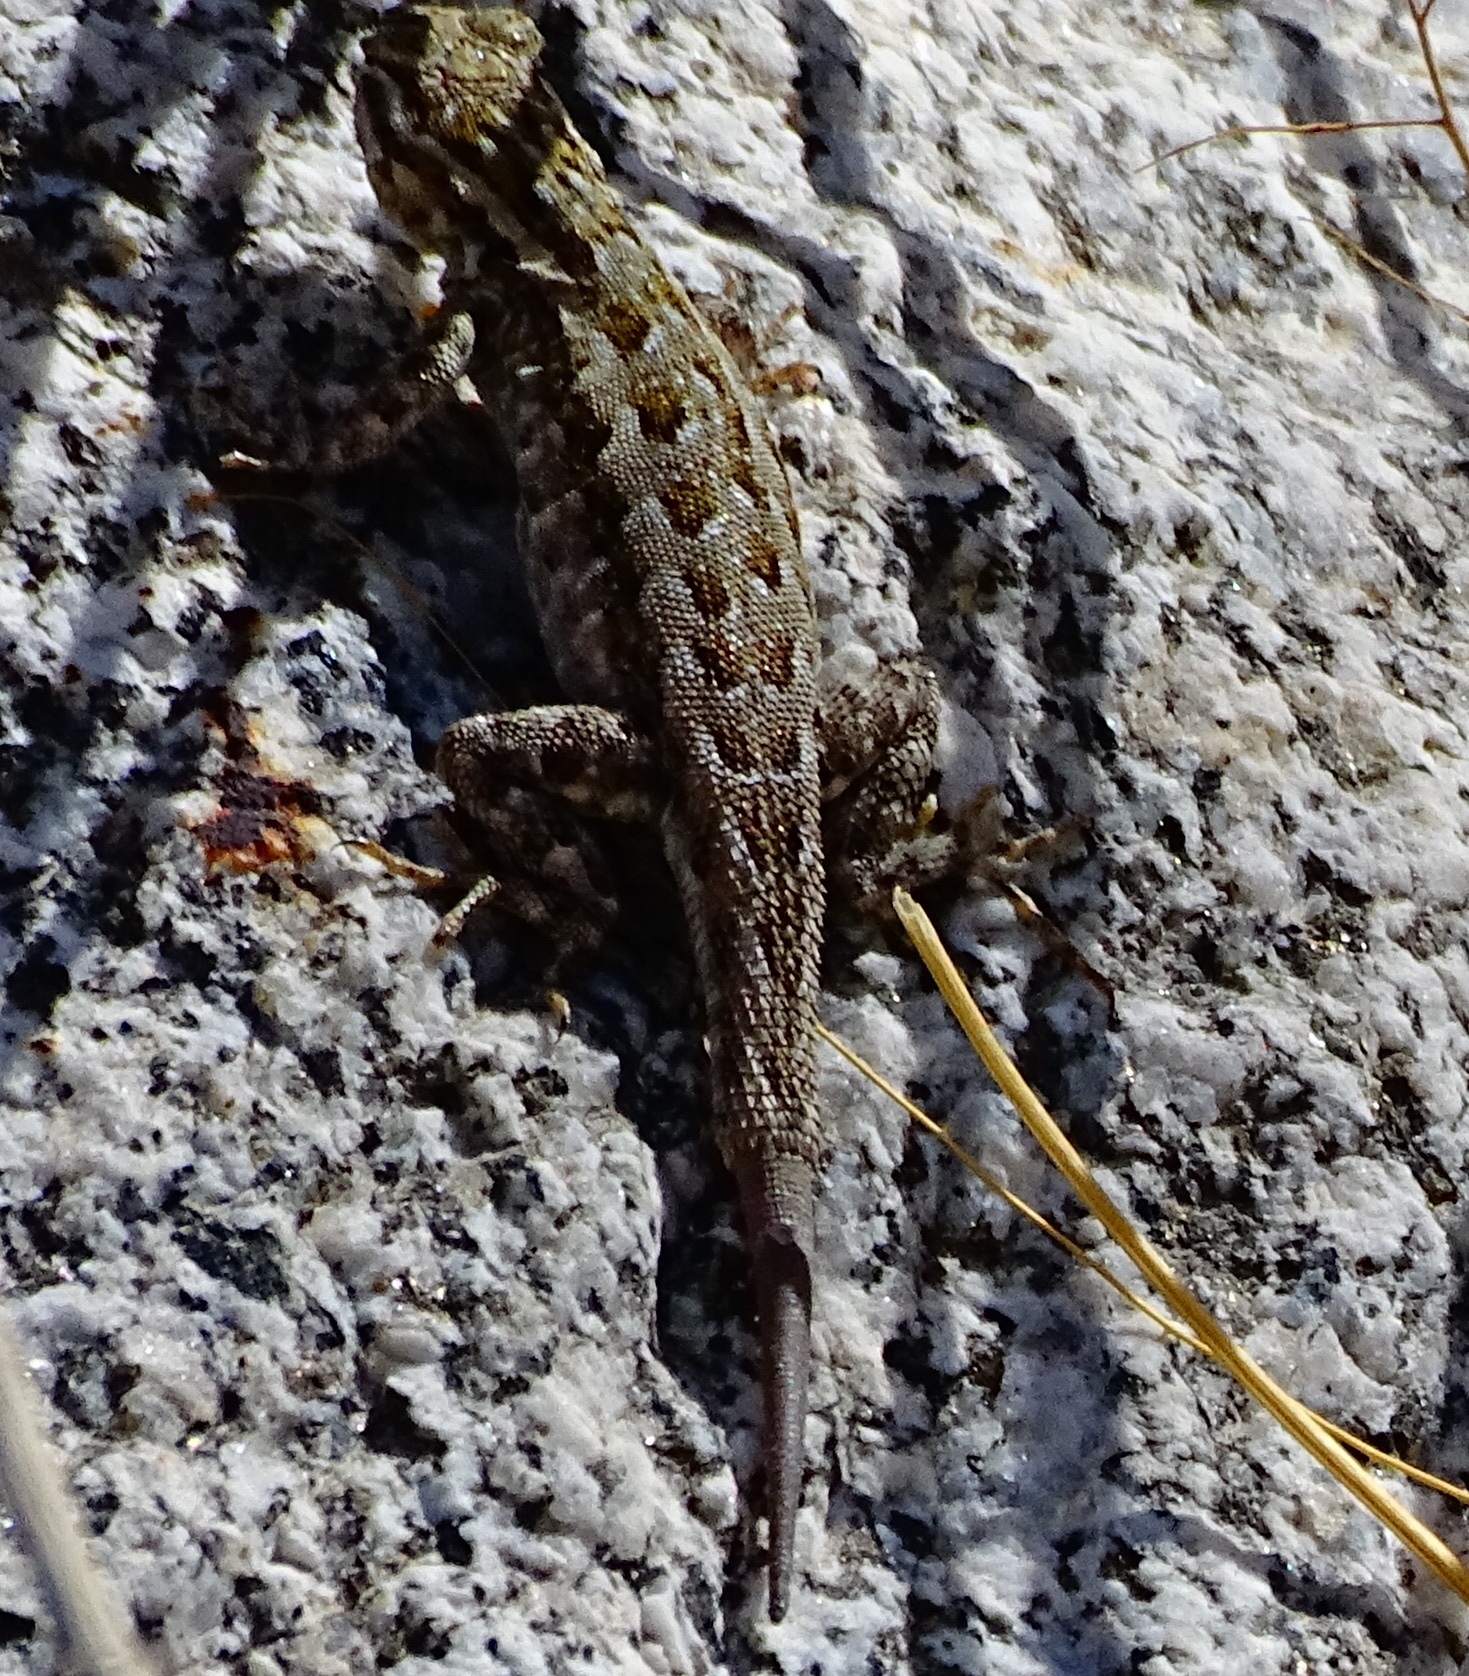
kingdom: Animalia
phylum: Chordata
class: Squamata
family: Phrynosomatidae
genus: Uta
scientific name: Uta stansburiana
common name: Side-blotched lizard
